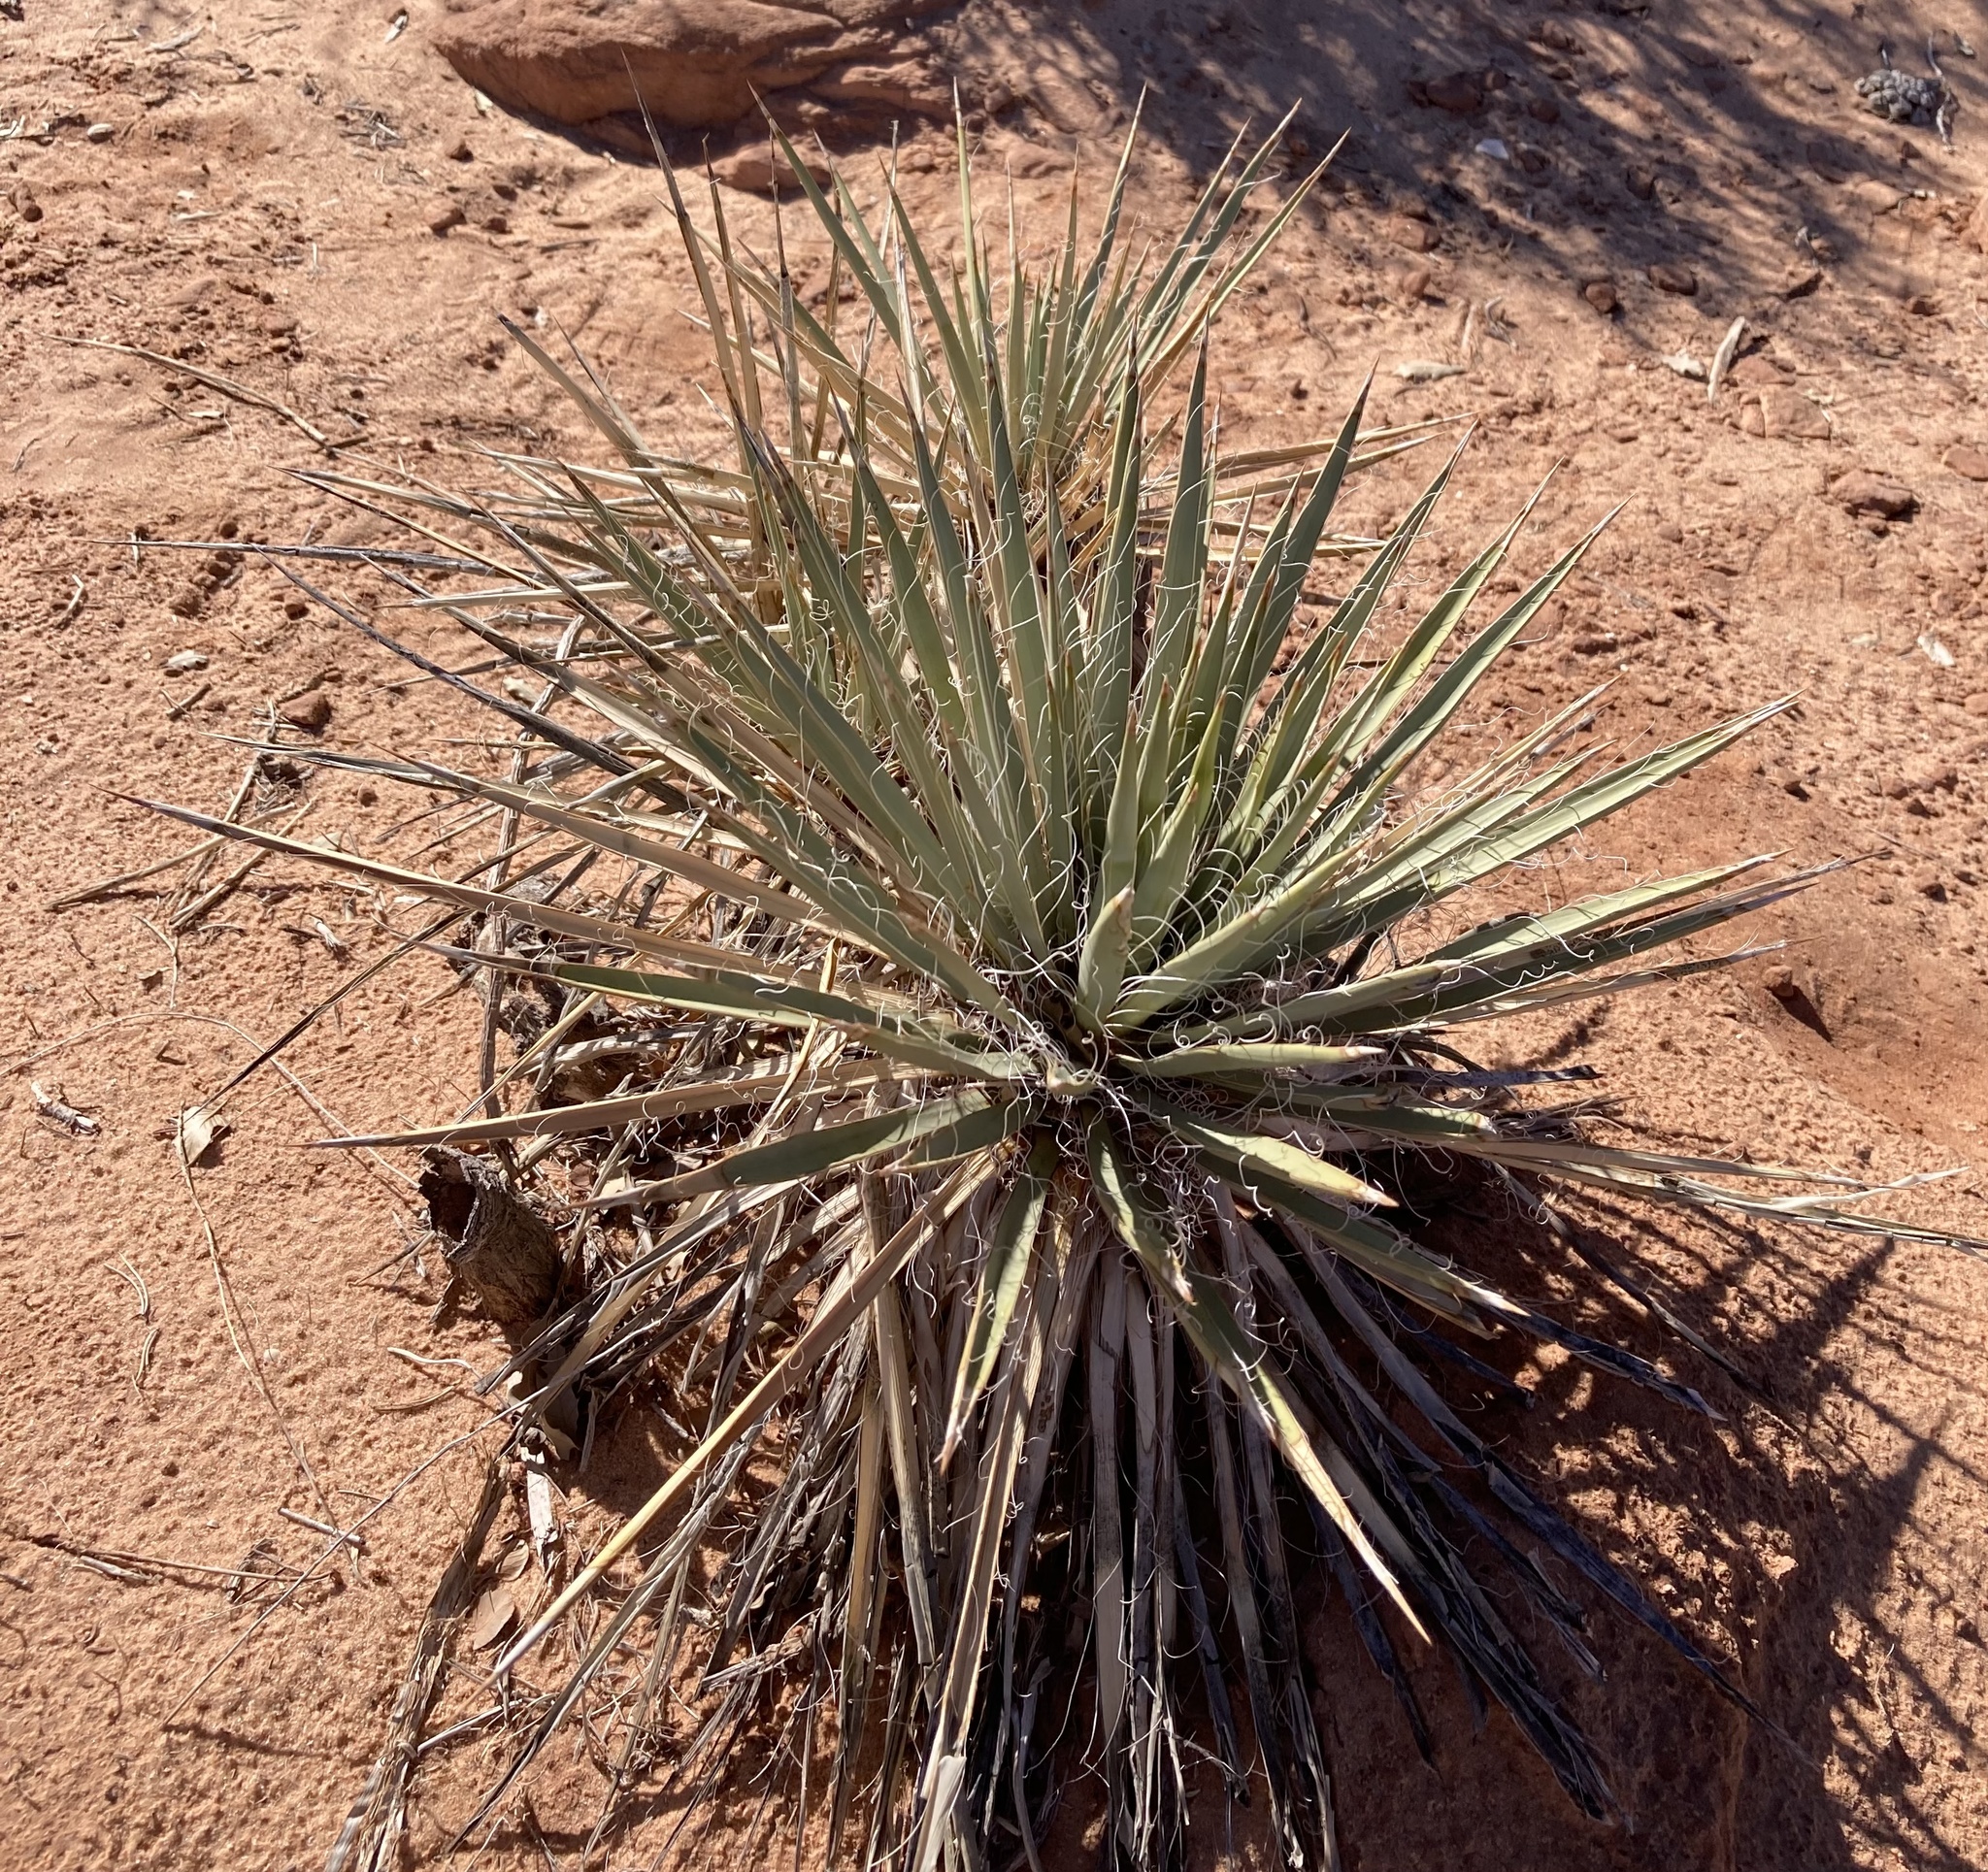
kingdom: Plantae
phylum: Tracheophyta
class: Liliopsida
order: Asparagales
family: Asparagaceae
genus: Yucca
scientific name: Yucca angustissima
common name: Narrowleaf yucca
